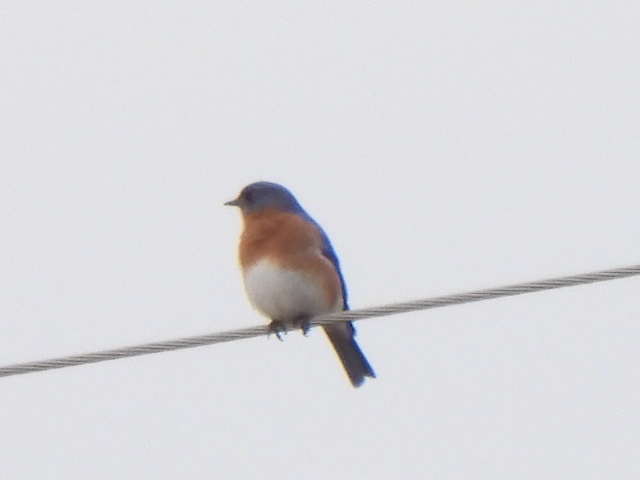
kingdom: Animalia
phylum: Chordata
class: Aves
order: Passeriformes
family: Turdidae
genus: Sialia
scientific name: Sialia sialis
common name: Eastern bluebird
